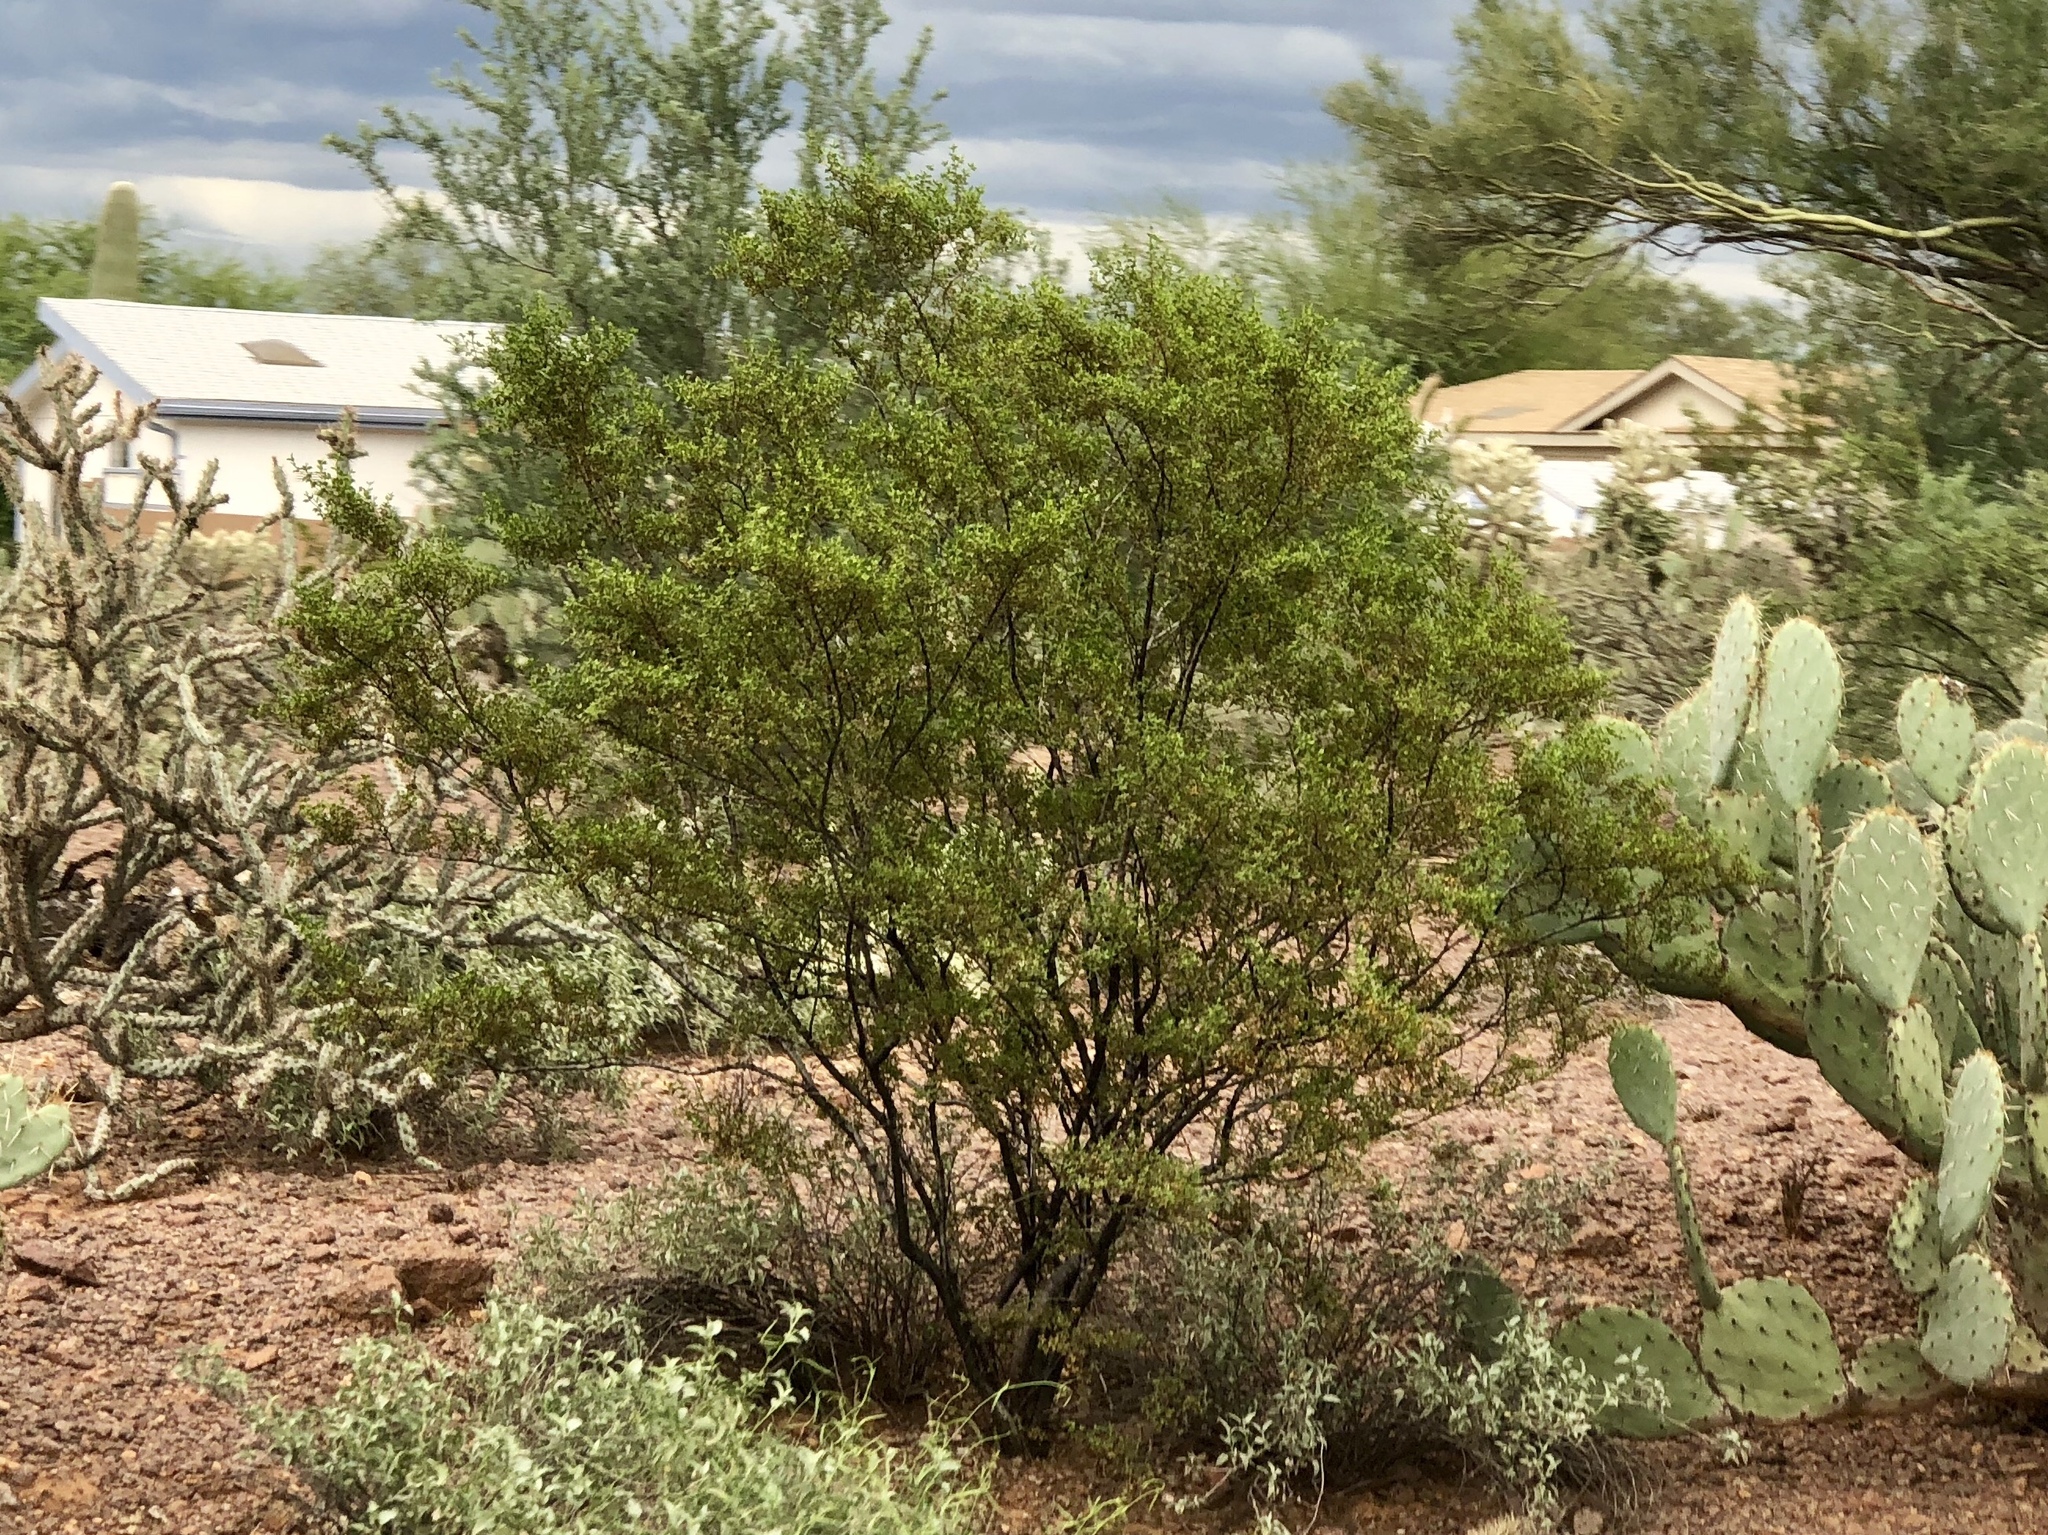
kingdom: Plantae
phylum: Tracheophyta
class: Magnoliopsida
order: Zygophyllales
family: Zygophyllaceae
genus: Larrea
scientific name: Larrea tridentata
